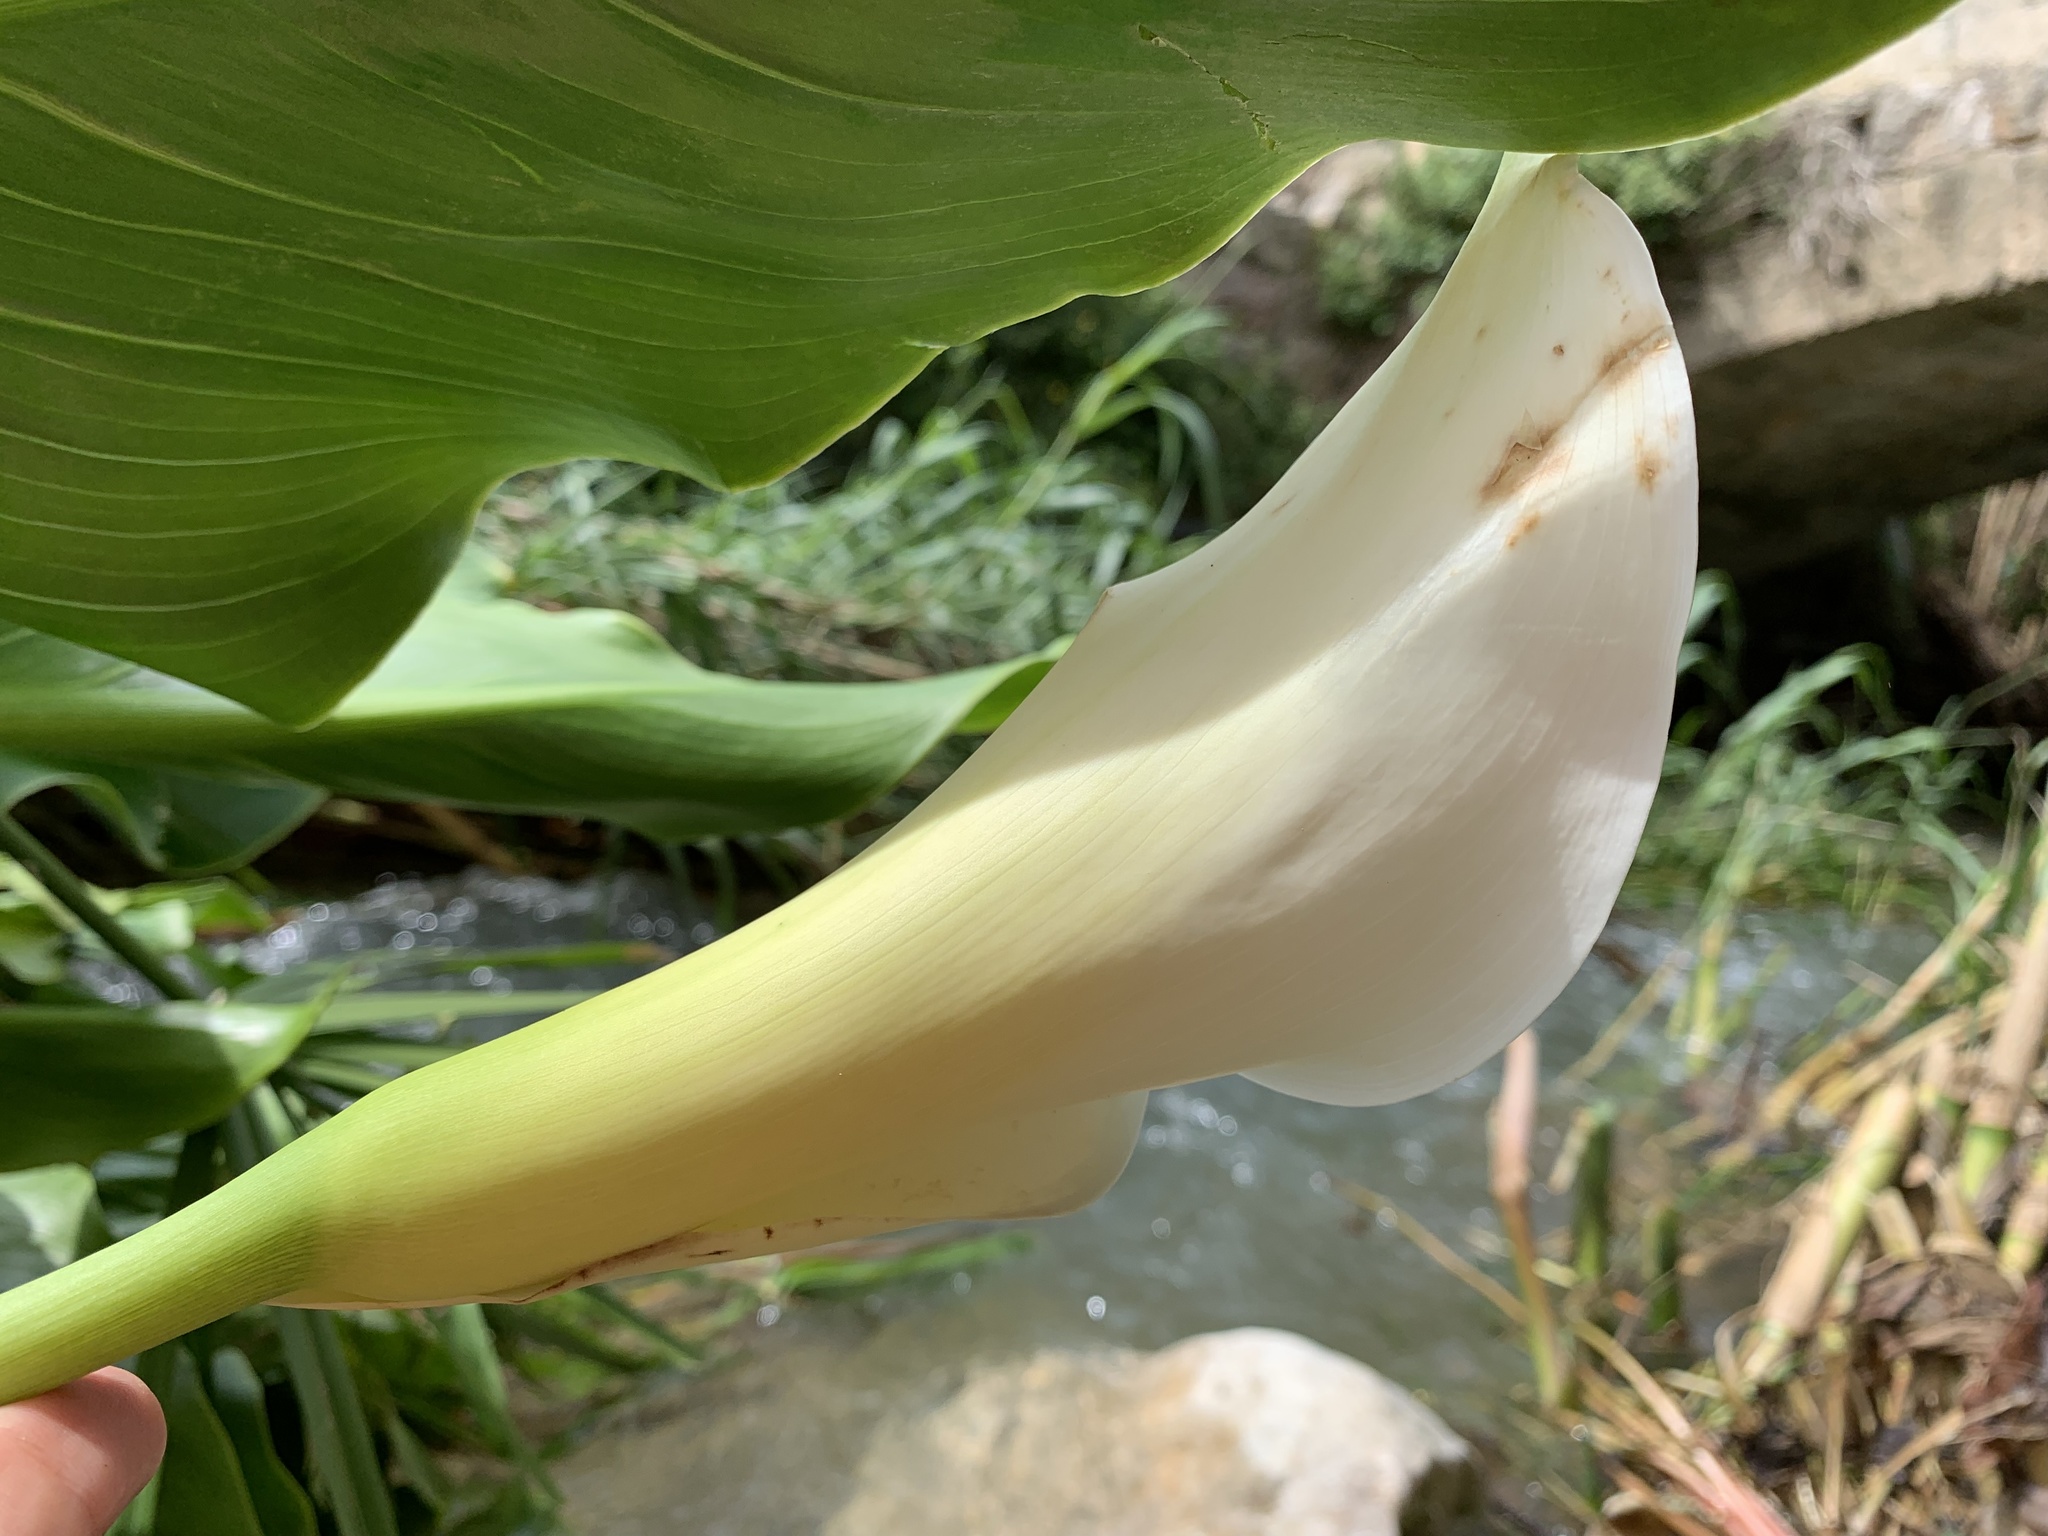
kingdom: Plantae
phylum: Tracheophyta
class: Liliopsida
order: Alismatales
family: Araceae
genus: Zantedeschia
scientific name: Zantedeschia aethiopica
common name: Altar-lily
